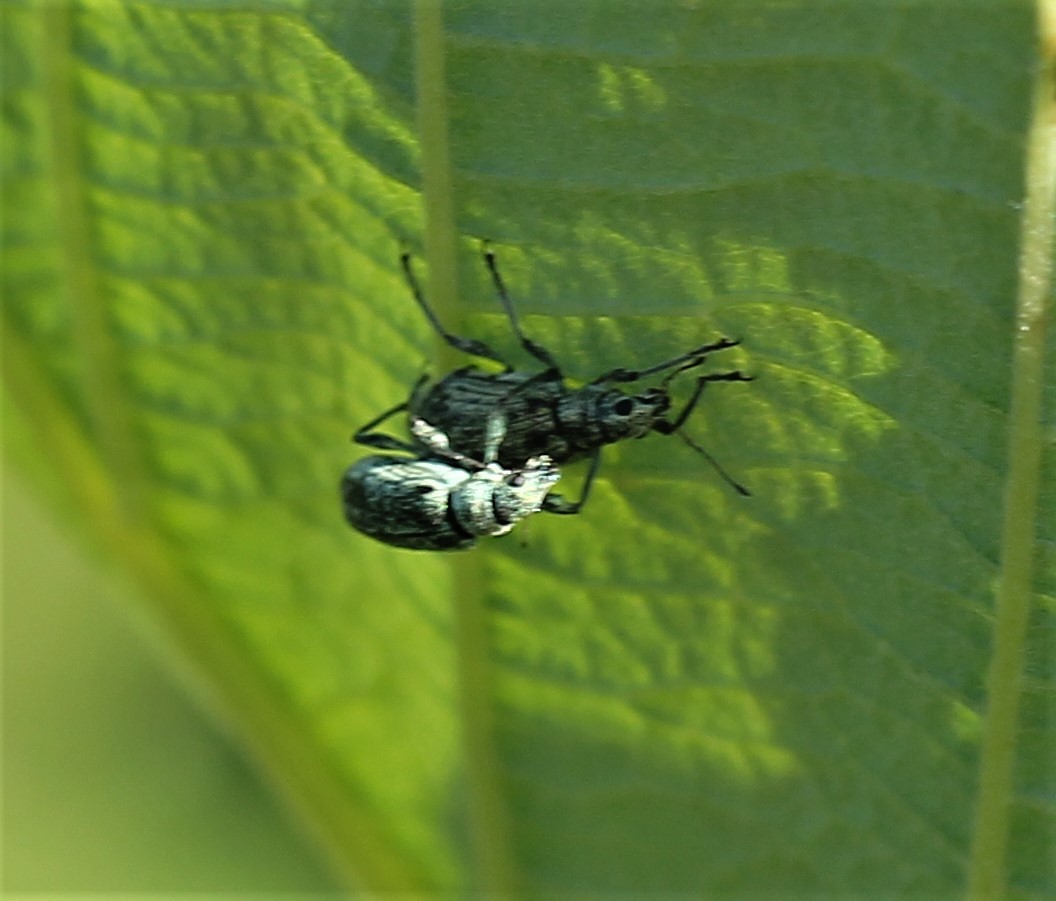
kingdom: Animalia
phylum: Arthropoda
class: Insecta
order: Coleoptera
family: Curculionidae
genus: Polydrusus
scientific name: Polydrusus cervinus
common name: Weevil
